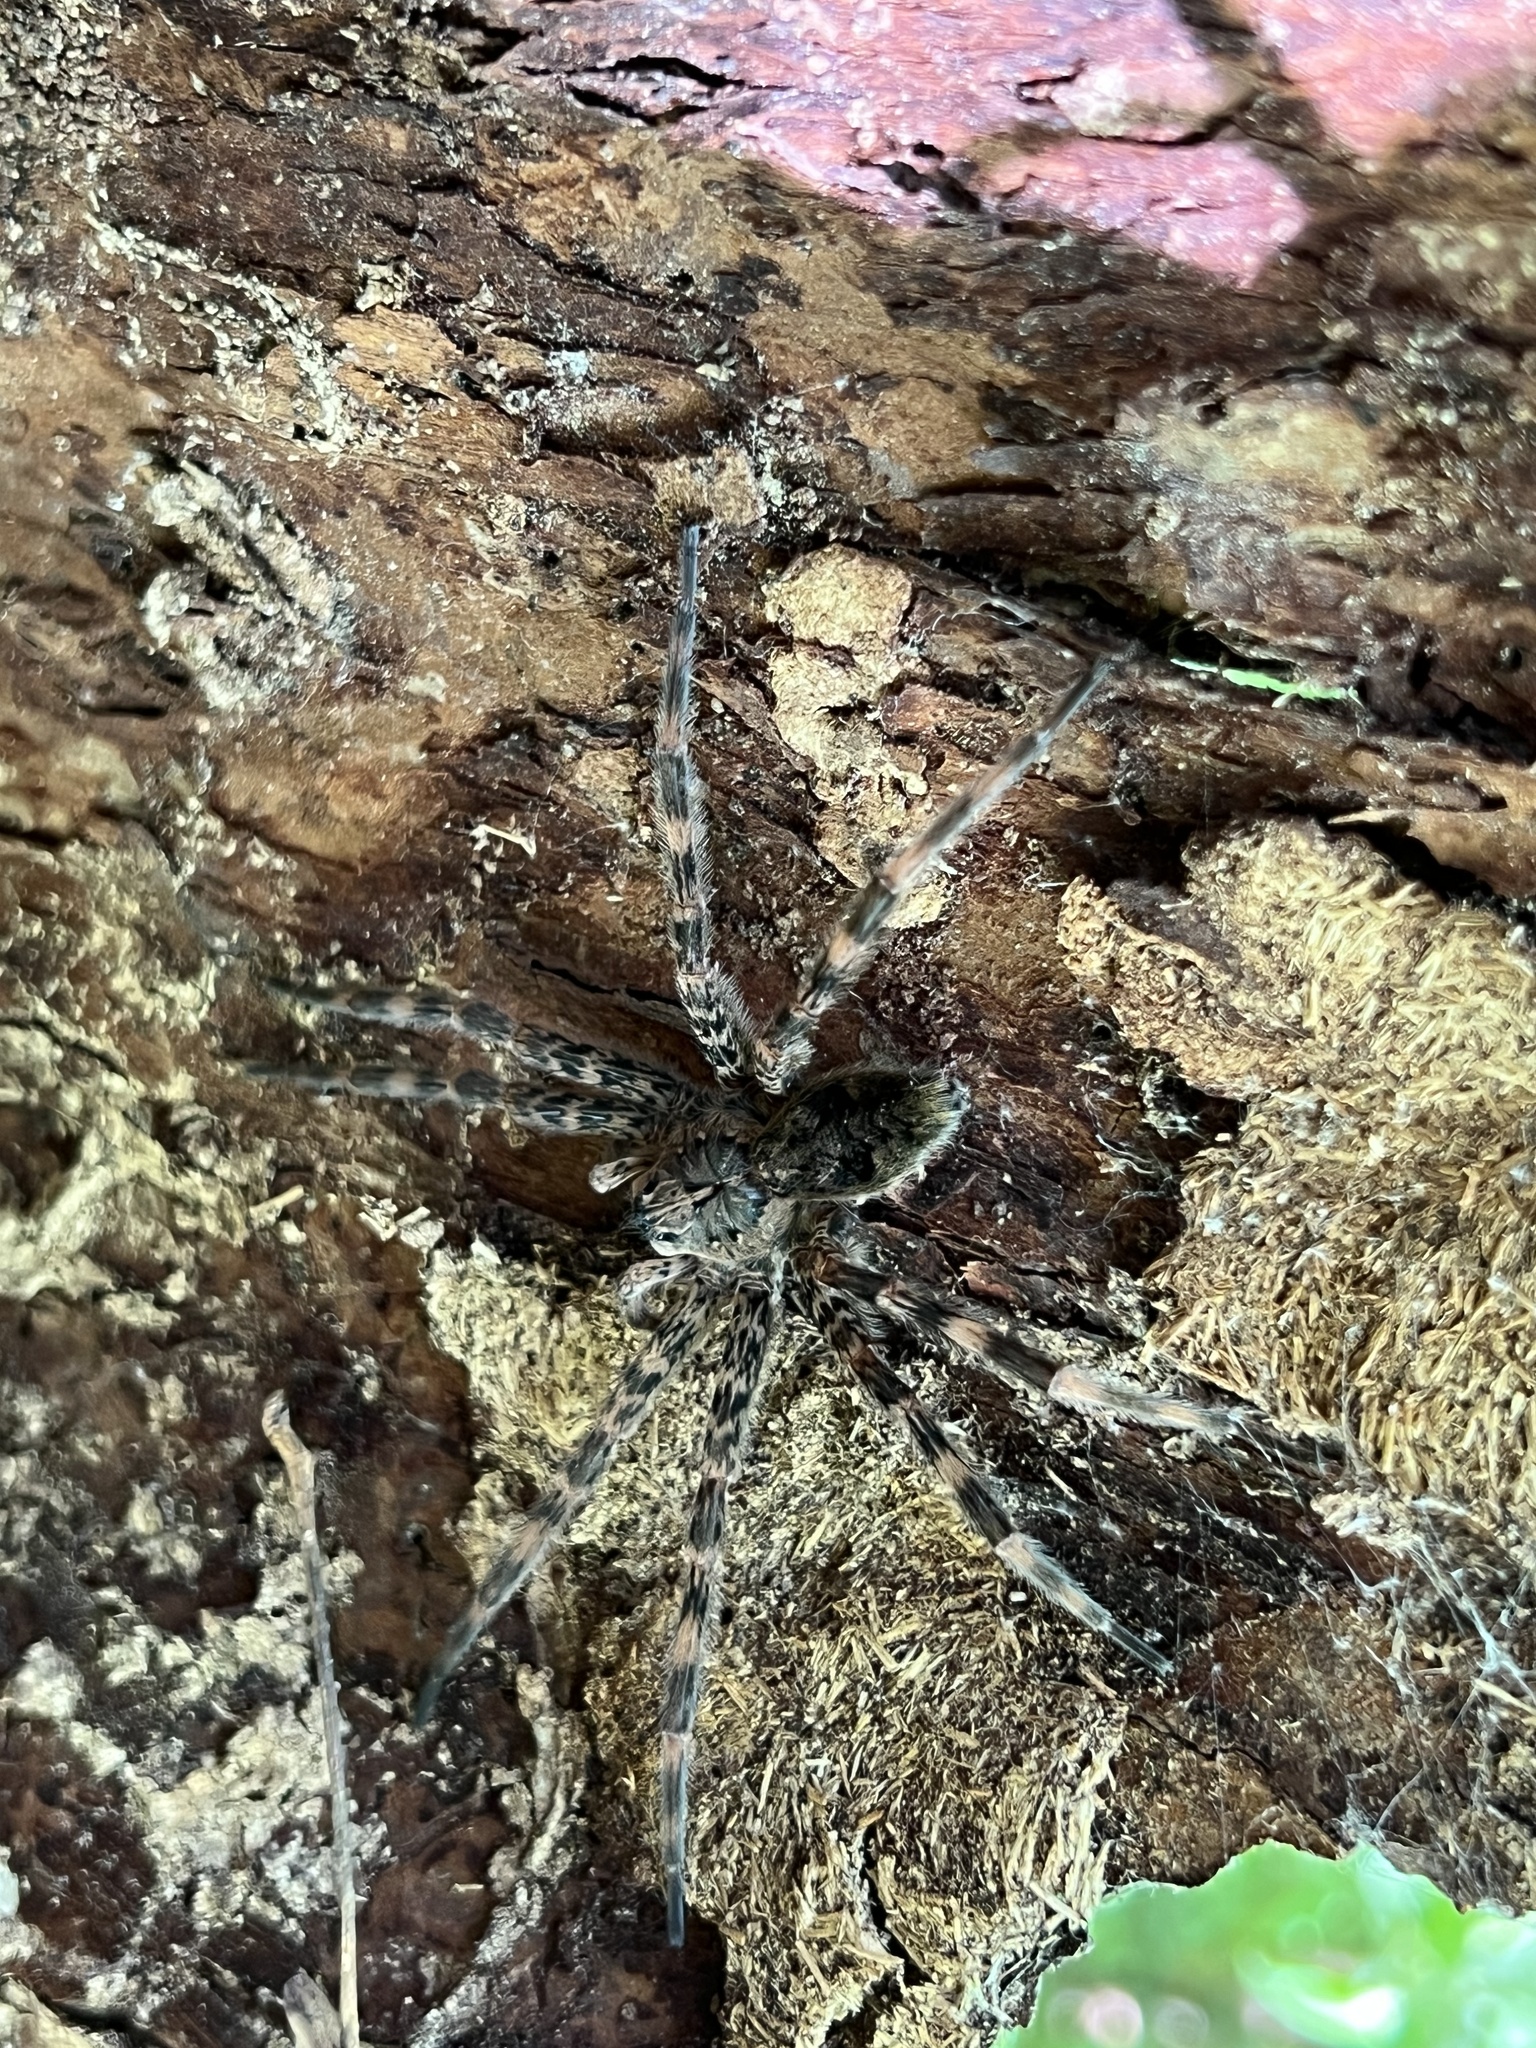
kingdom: Animalia
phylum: Arthropoda
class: Arachnida
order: Araneae
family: Pisauridae
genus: Dolomedes
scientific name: Dolomedes tenebrosus
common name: Dark fishing spider
